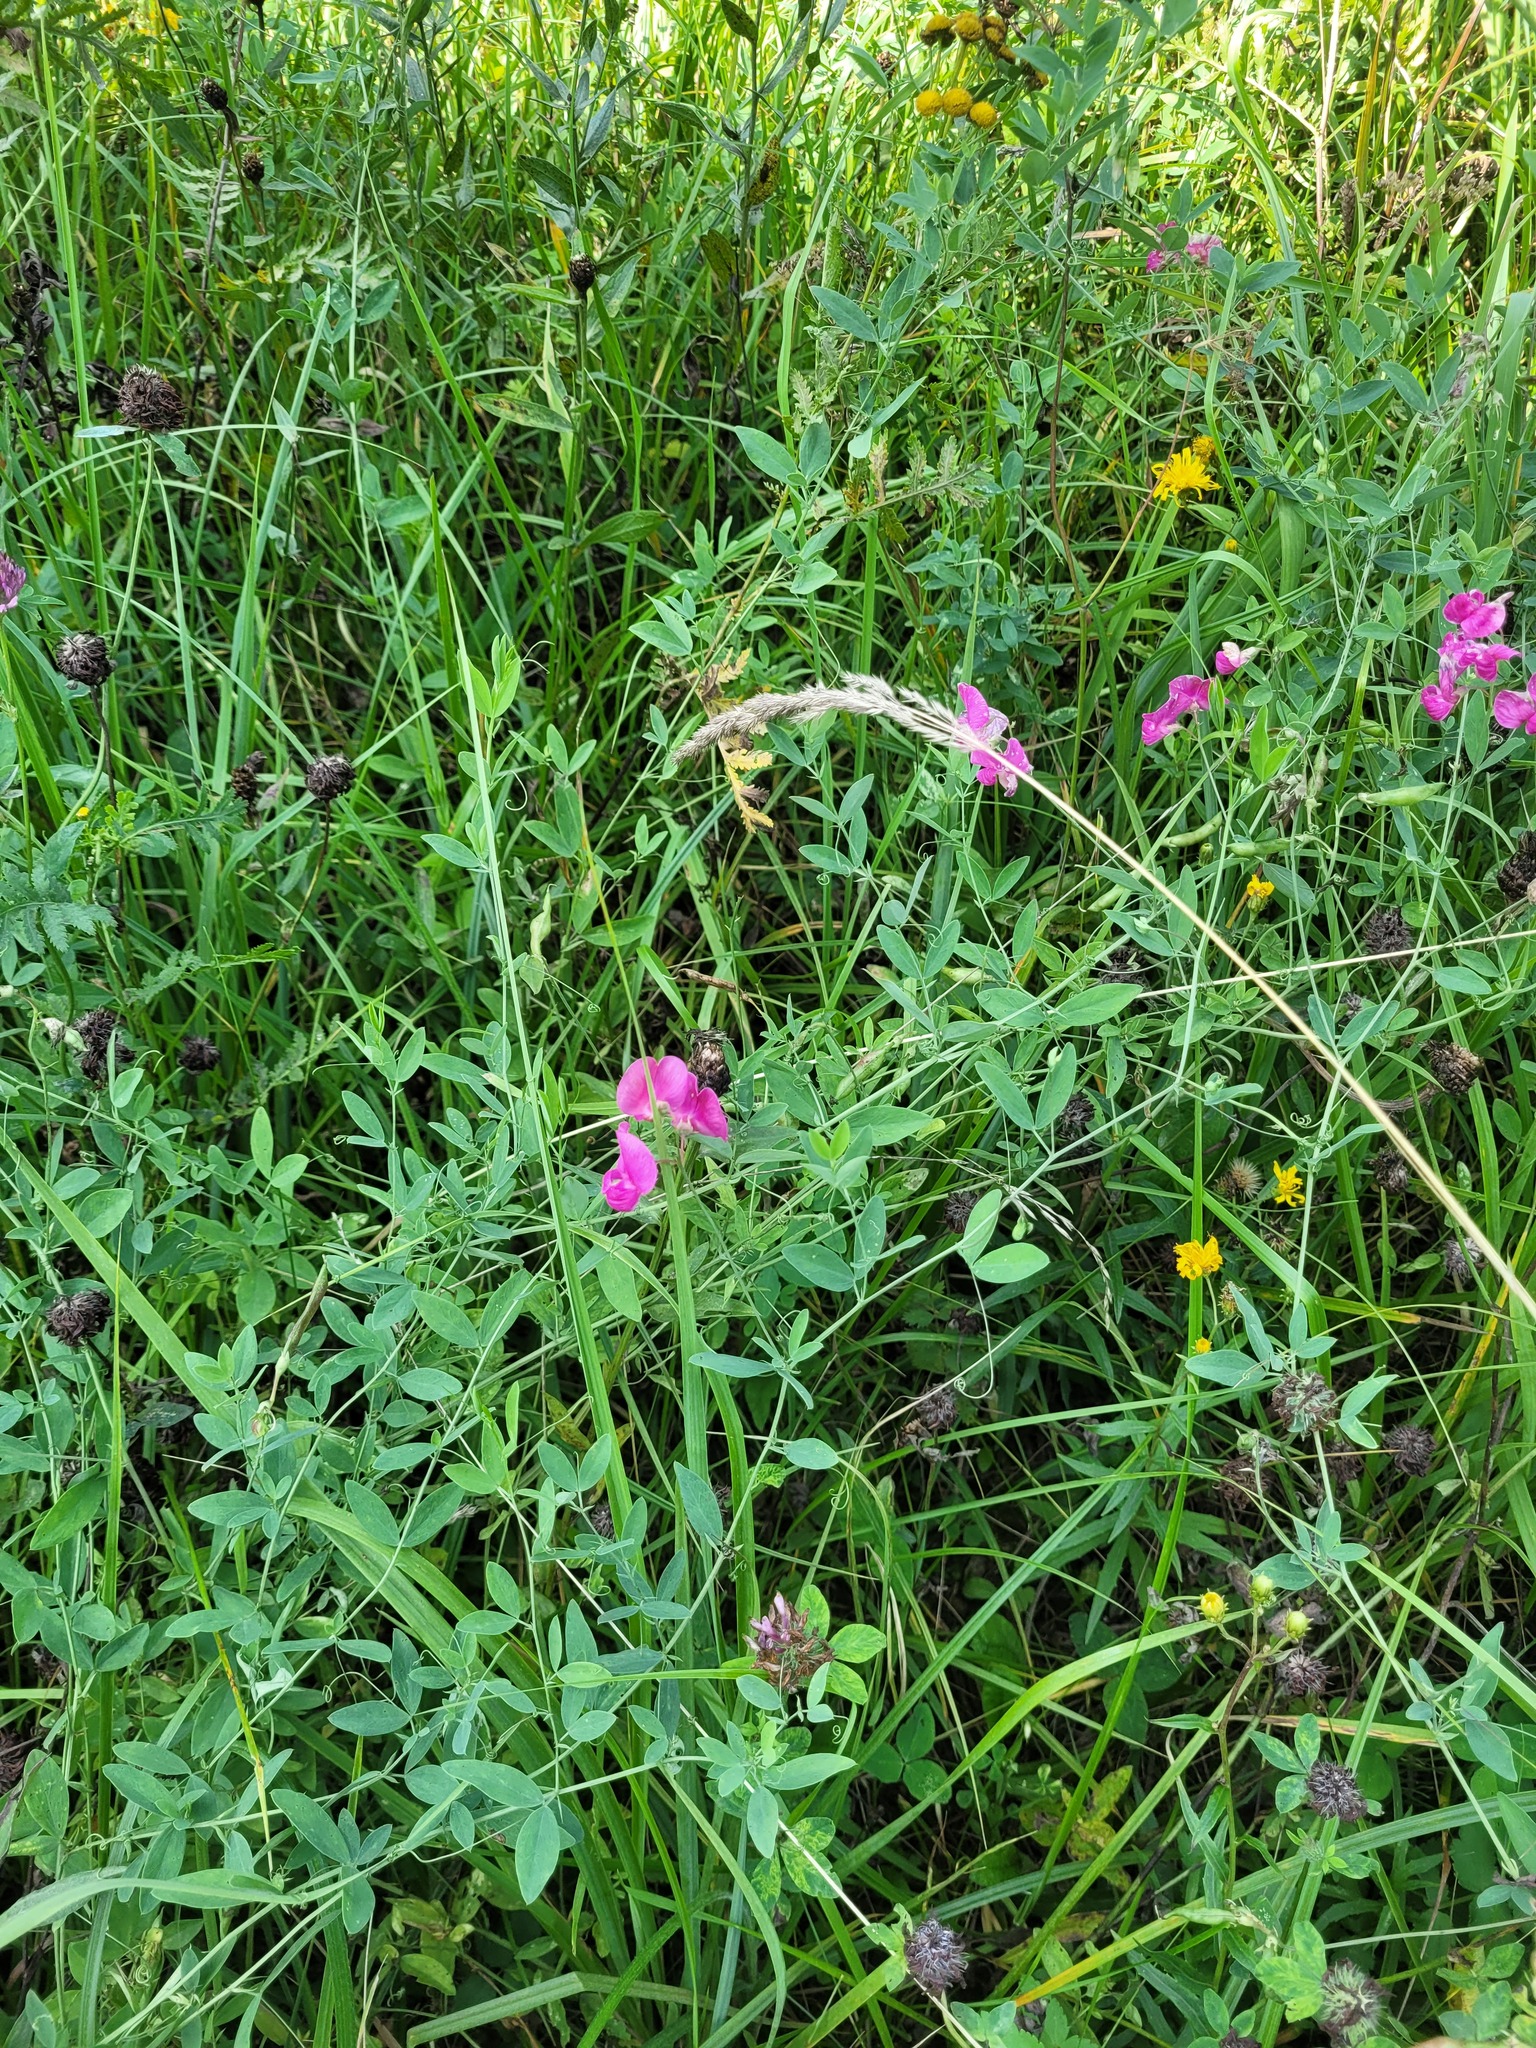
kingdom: Plantae
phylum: Tracheophyta
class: Magnoliopsida
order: Fabales
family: Fabaceae
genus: Lathyrus
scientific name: Lathyrus tuberosus
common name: Tuberous pea
